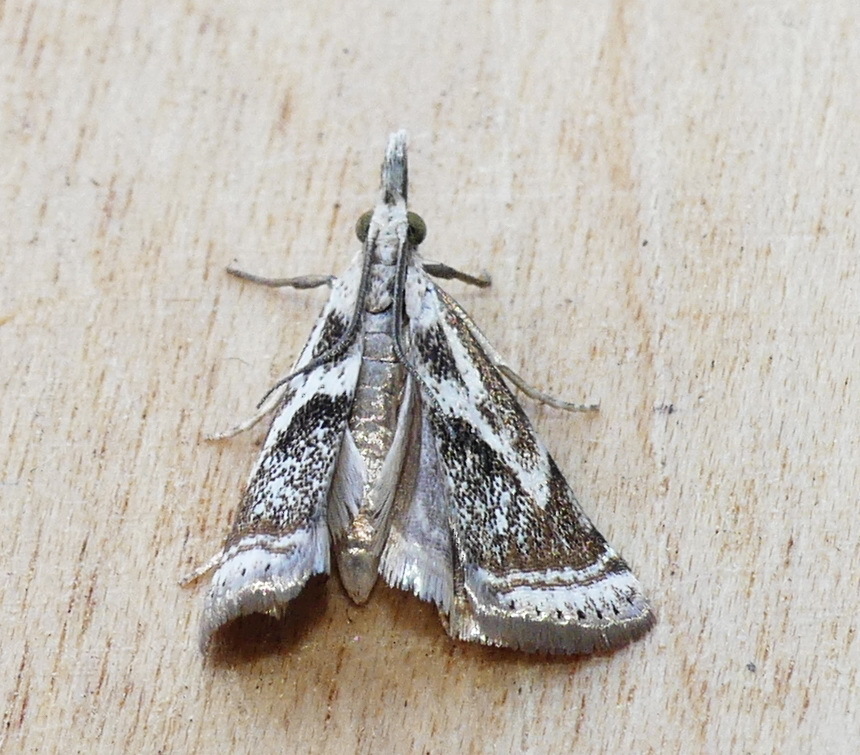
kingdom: Animalia
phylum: Arthropoda
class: Insecta
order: Lepidoptera
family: Crambidae
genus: Microcrambus
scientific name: Microcrambus elegans
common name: Elegant grass-veneer
